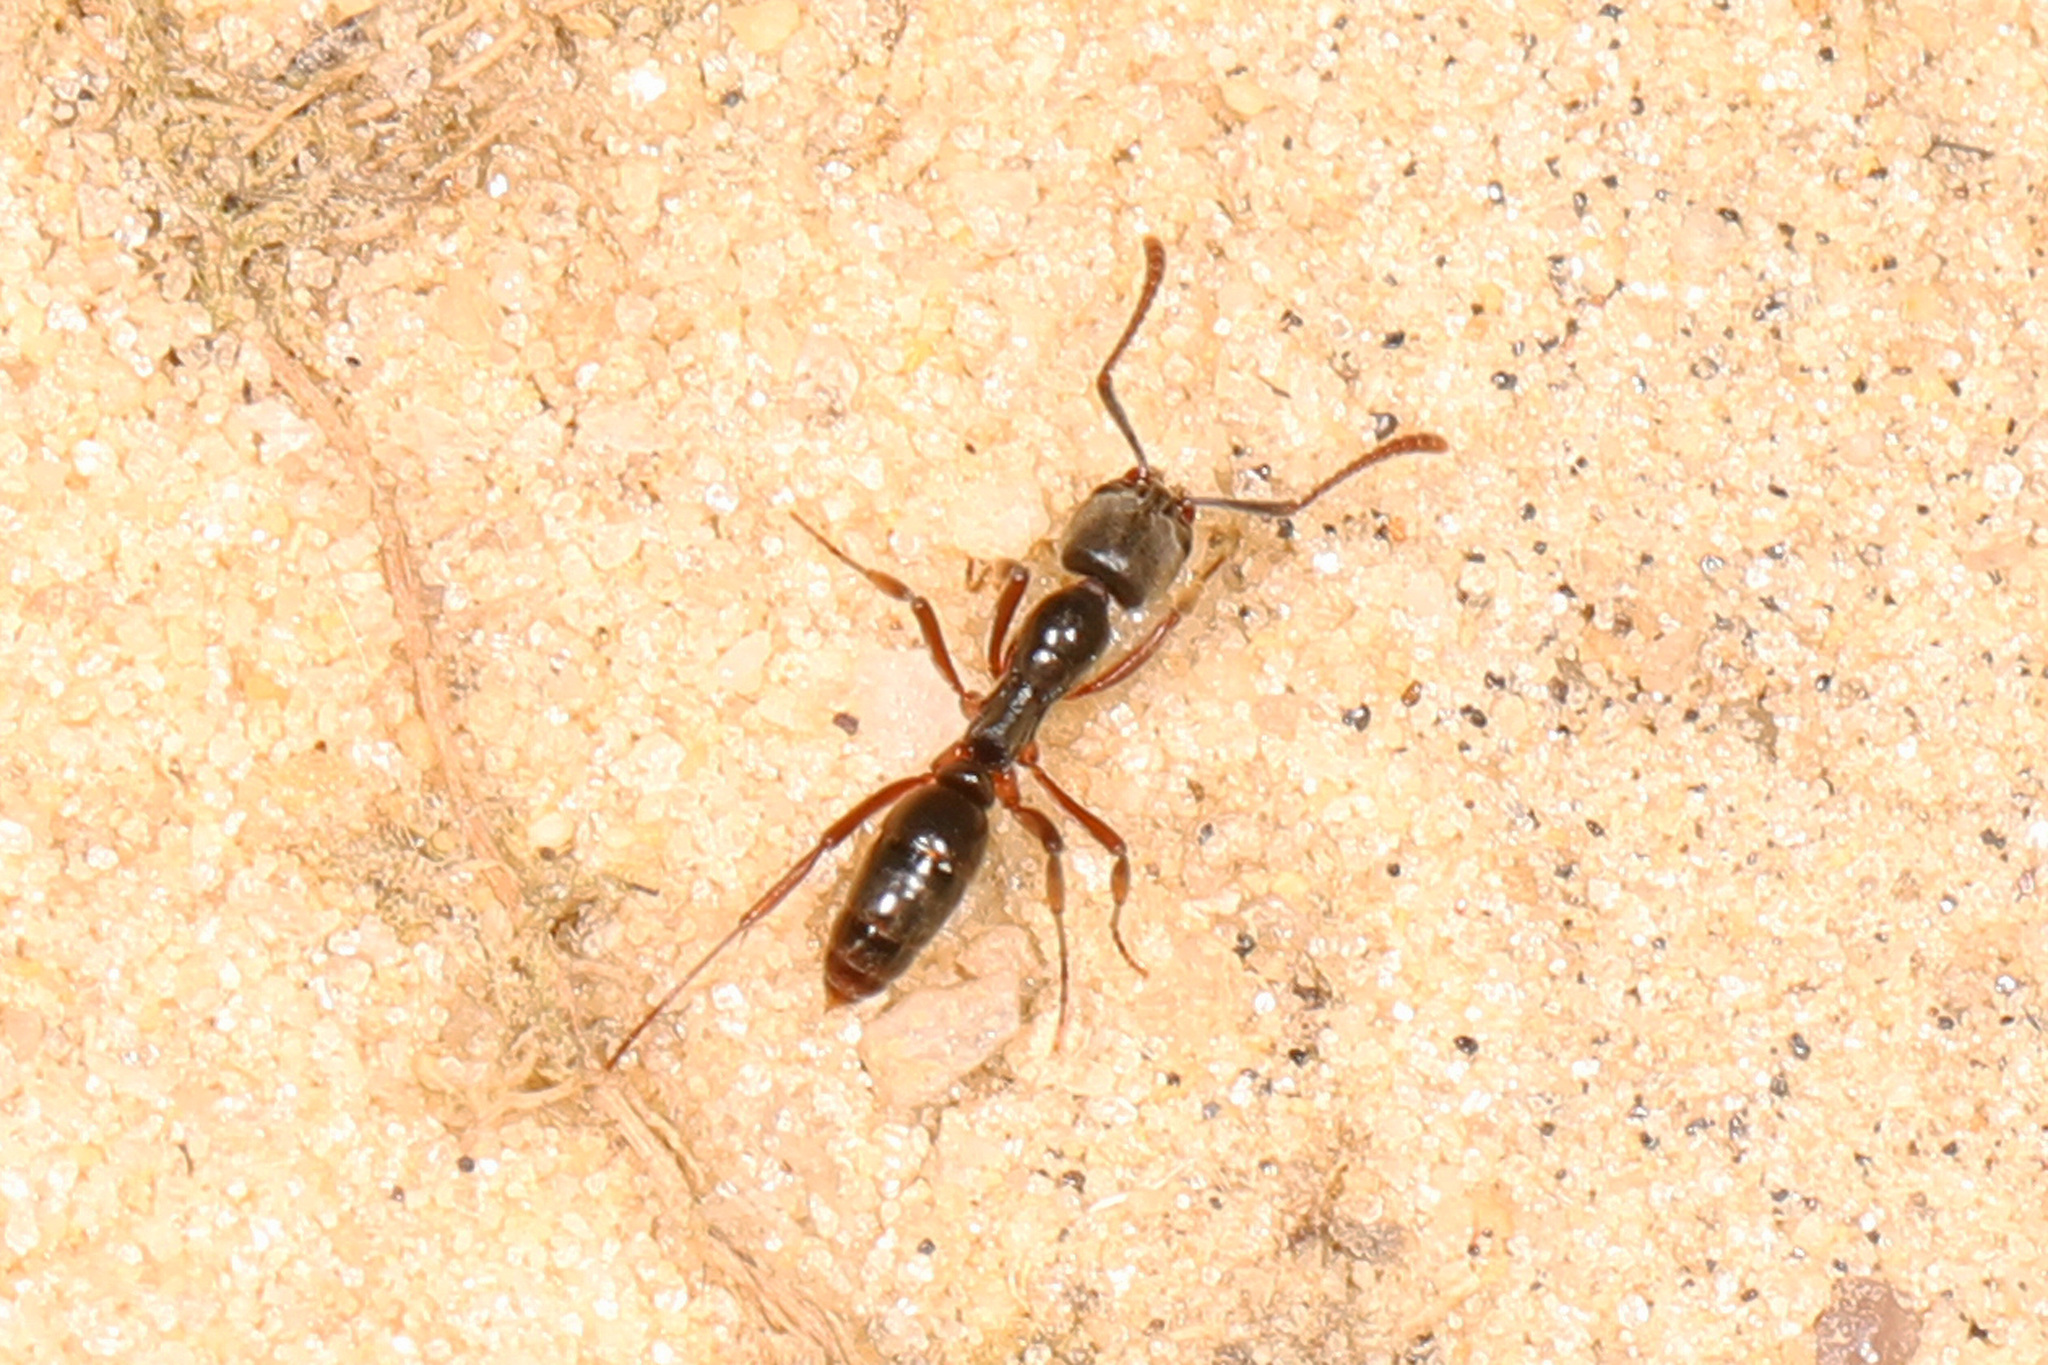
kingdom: Animalia
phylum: Arthropoda
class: Insecta
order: Hymenoptera
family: Formicidae
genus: Pachycondyla
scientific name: Pachycondyla chinensis
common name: Asian needle ant
